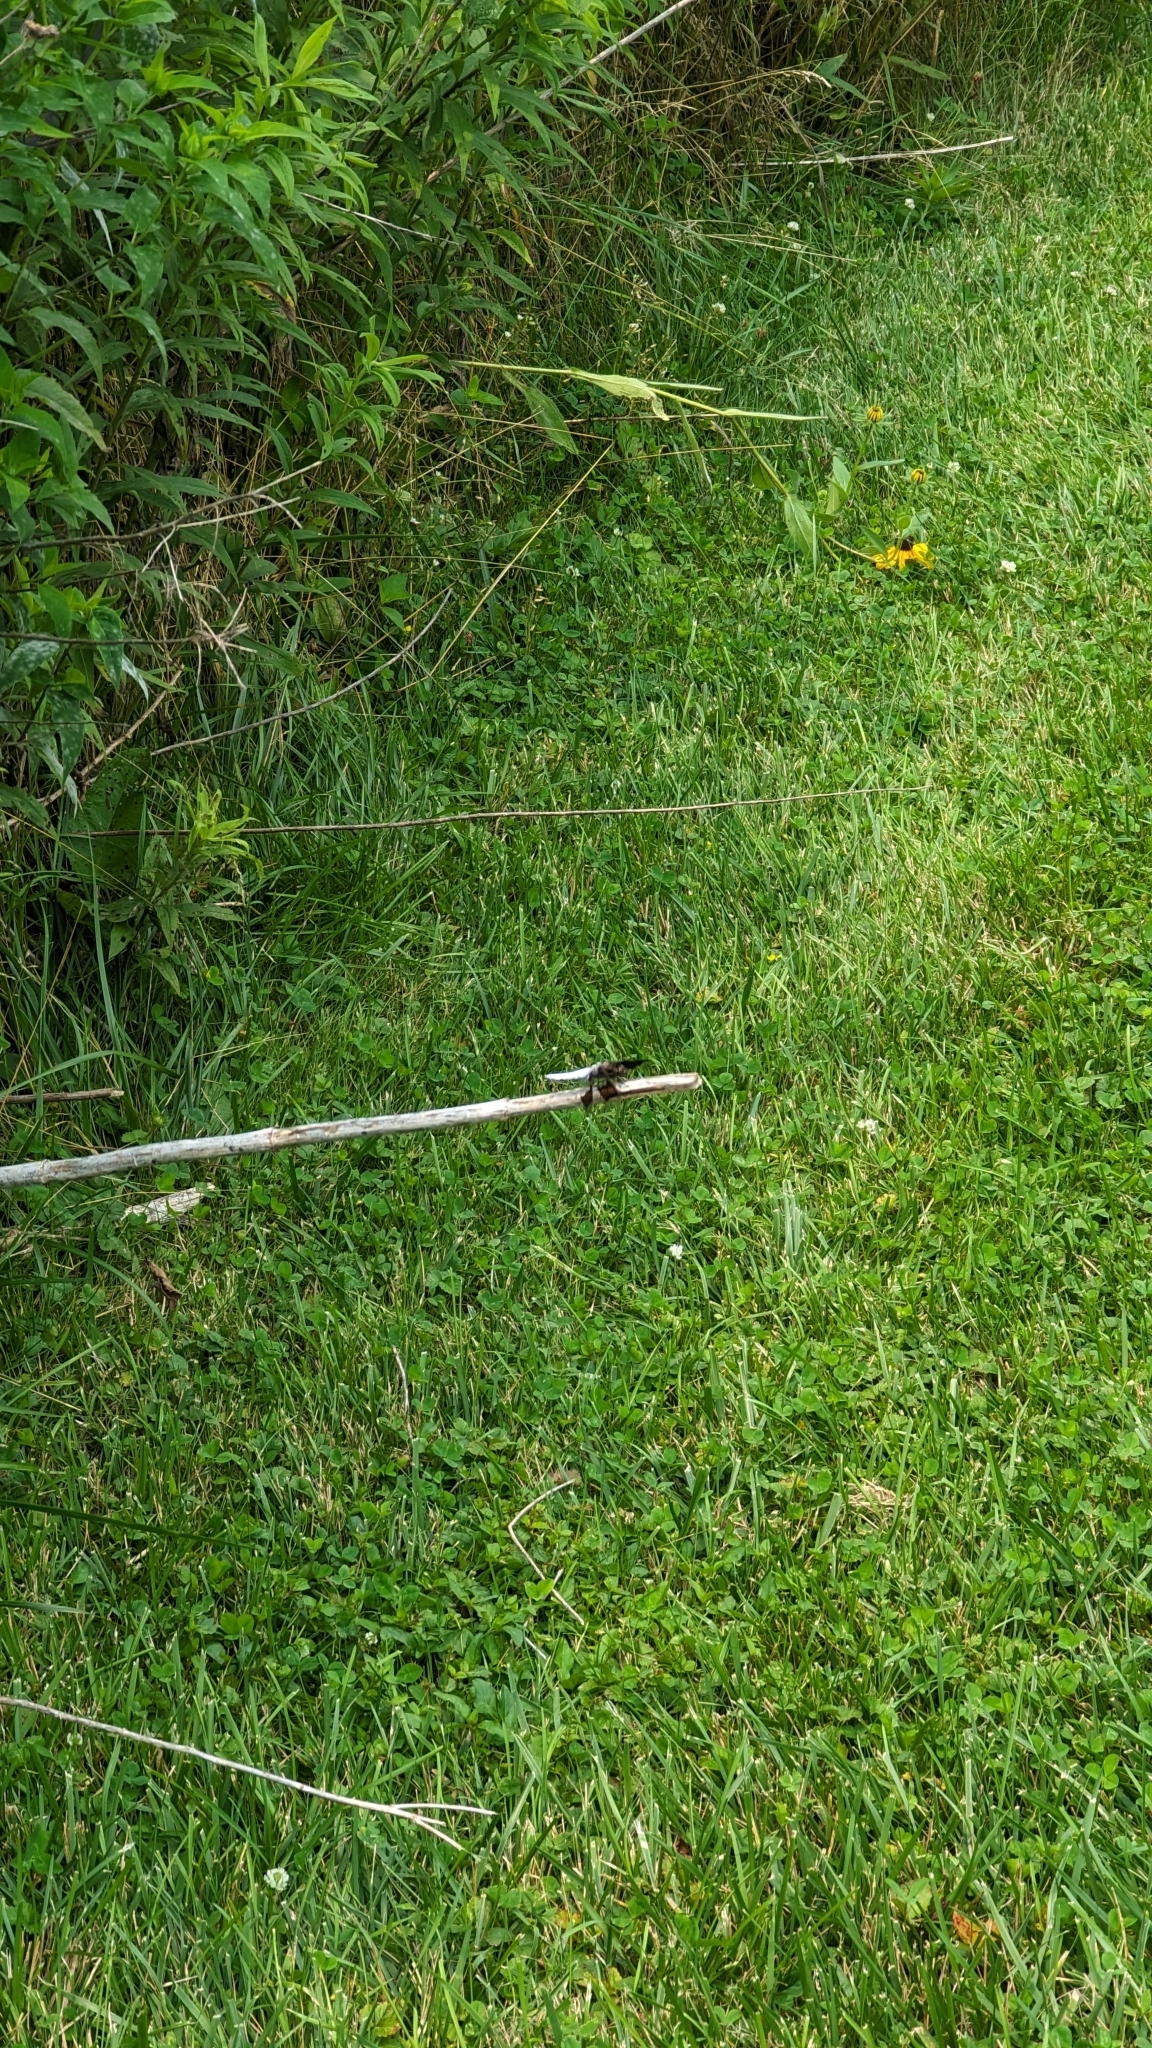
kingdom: Animalia
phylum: Arthropoda
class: Insecta
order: Odonata
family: Libellulidae
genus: Plathemis
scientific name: Plathemis lydia
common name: Common whitetail
